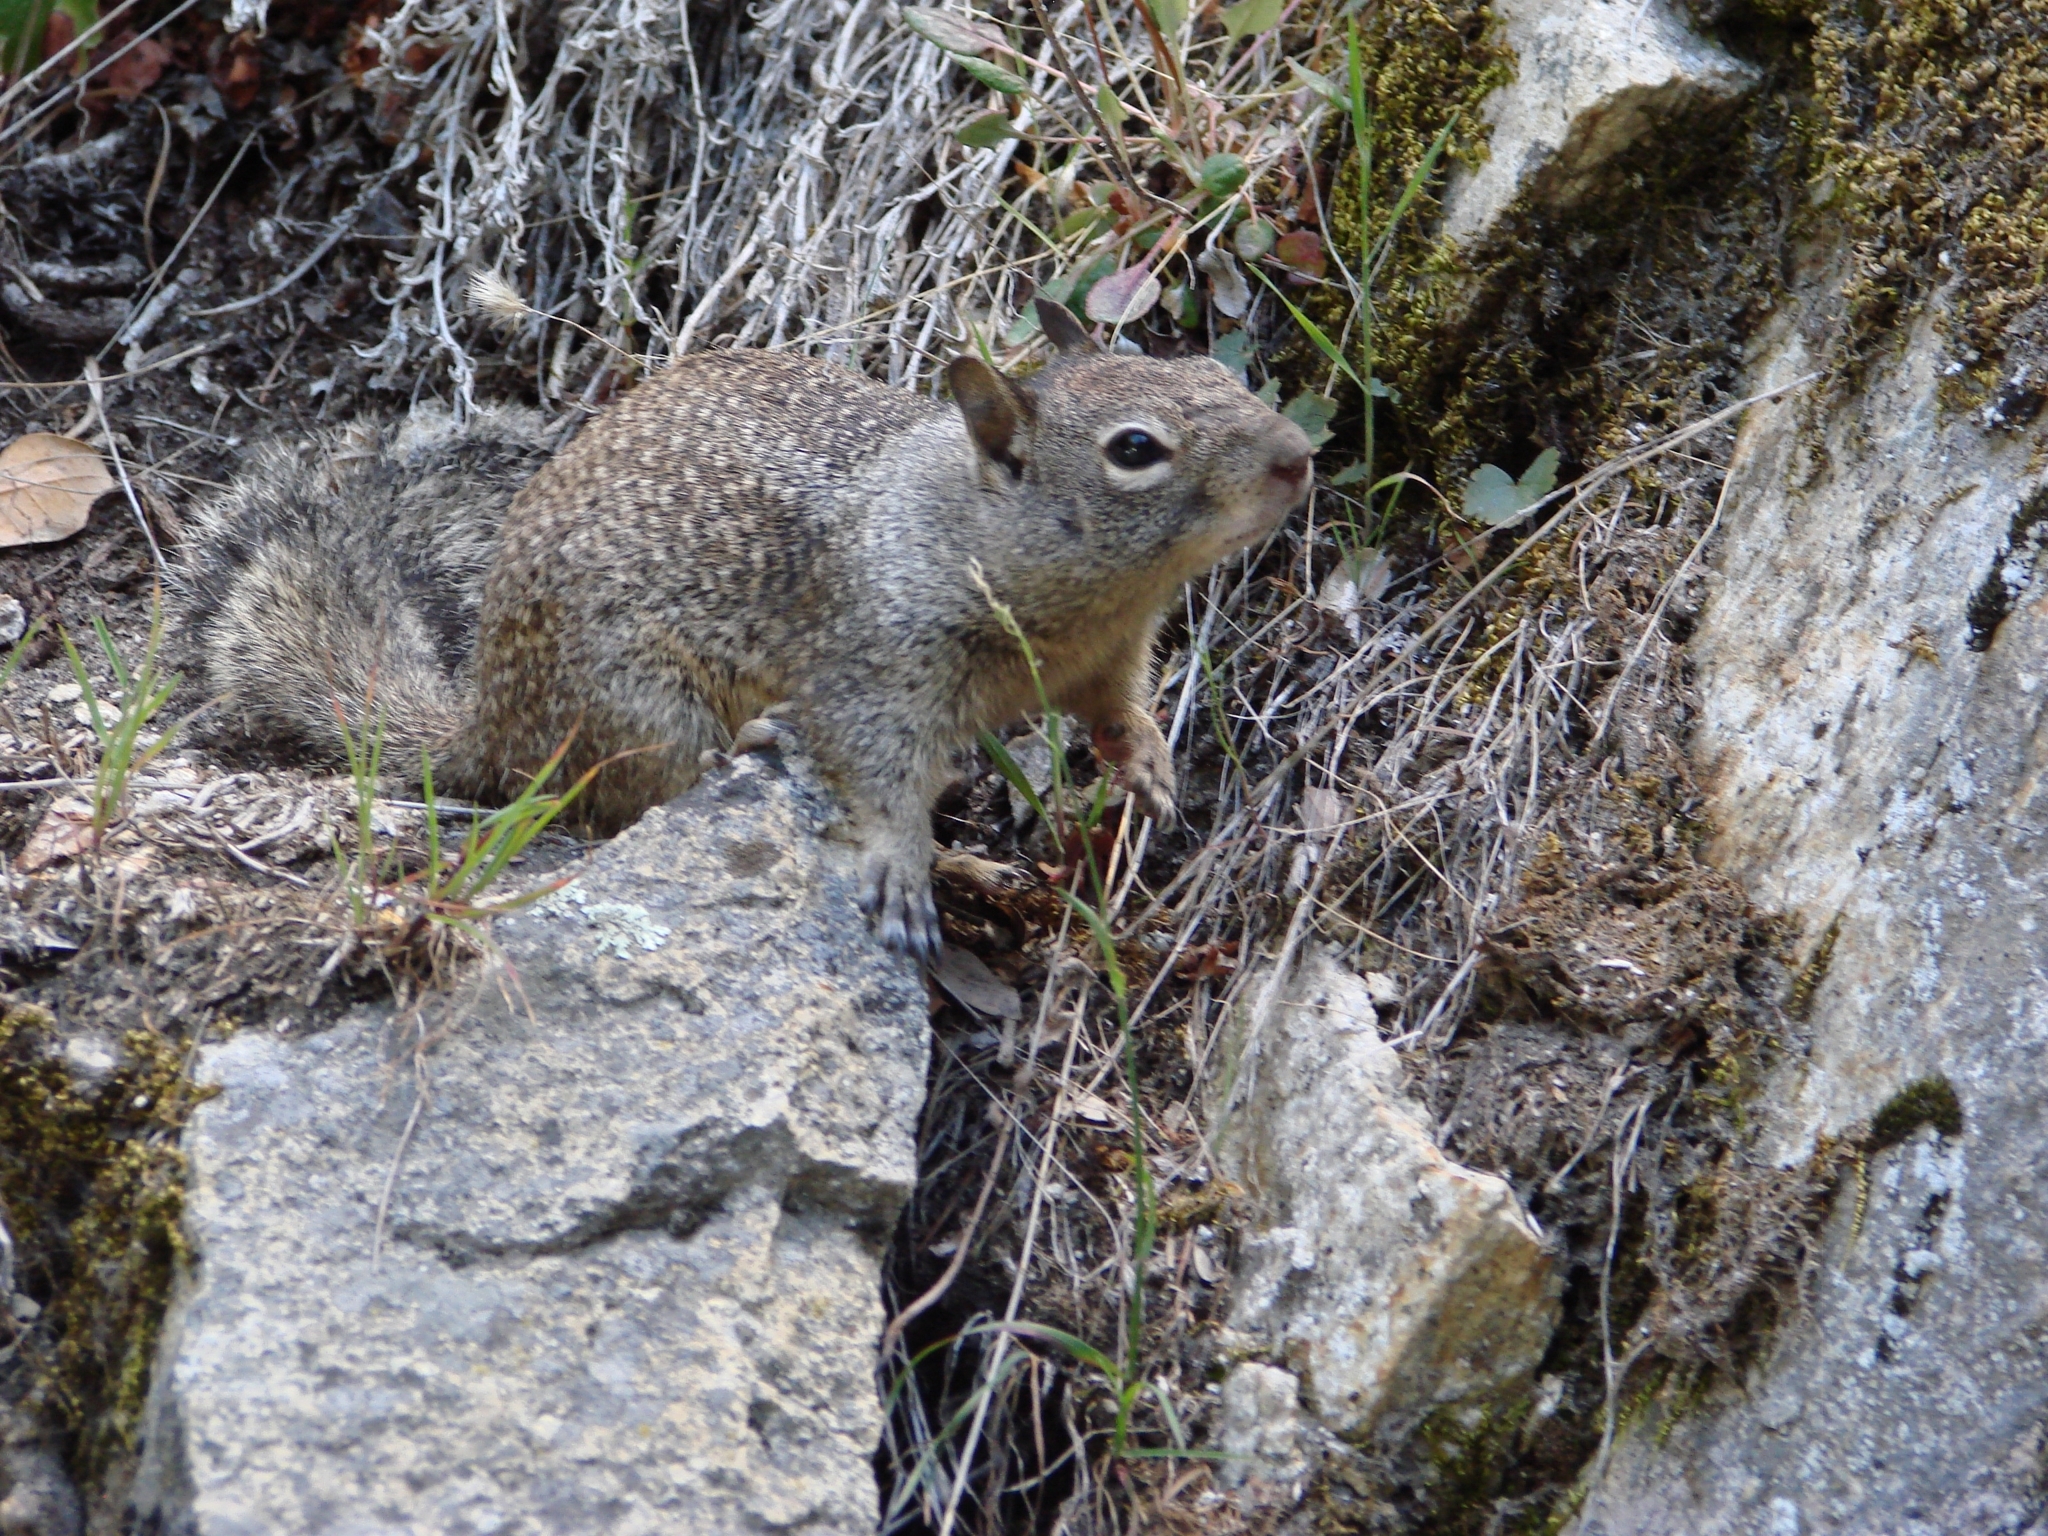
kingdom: Animalia
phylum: Chordata
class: Mammalia
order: Rodentia
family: Sciuridae
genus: Otospermophilus
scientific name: Otospermophilus beecheyi
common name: California ground squirrel
